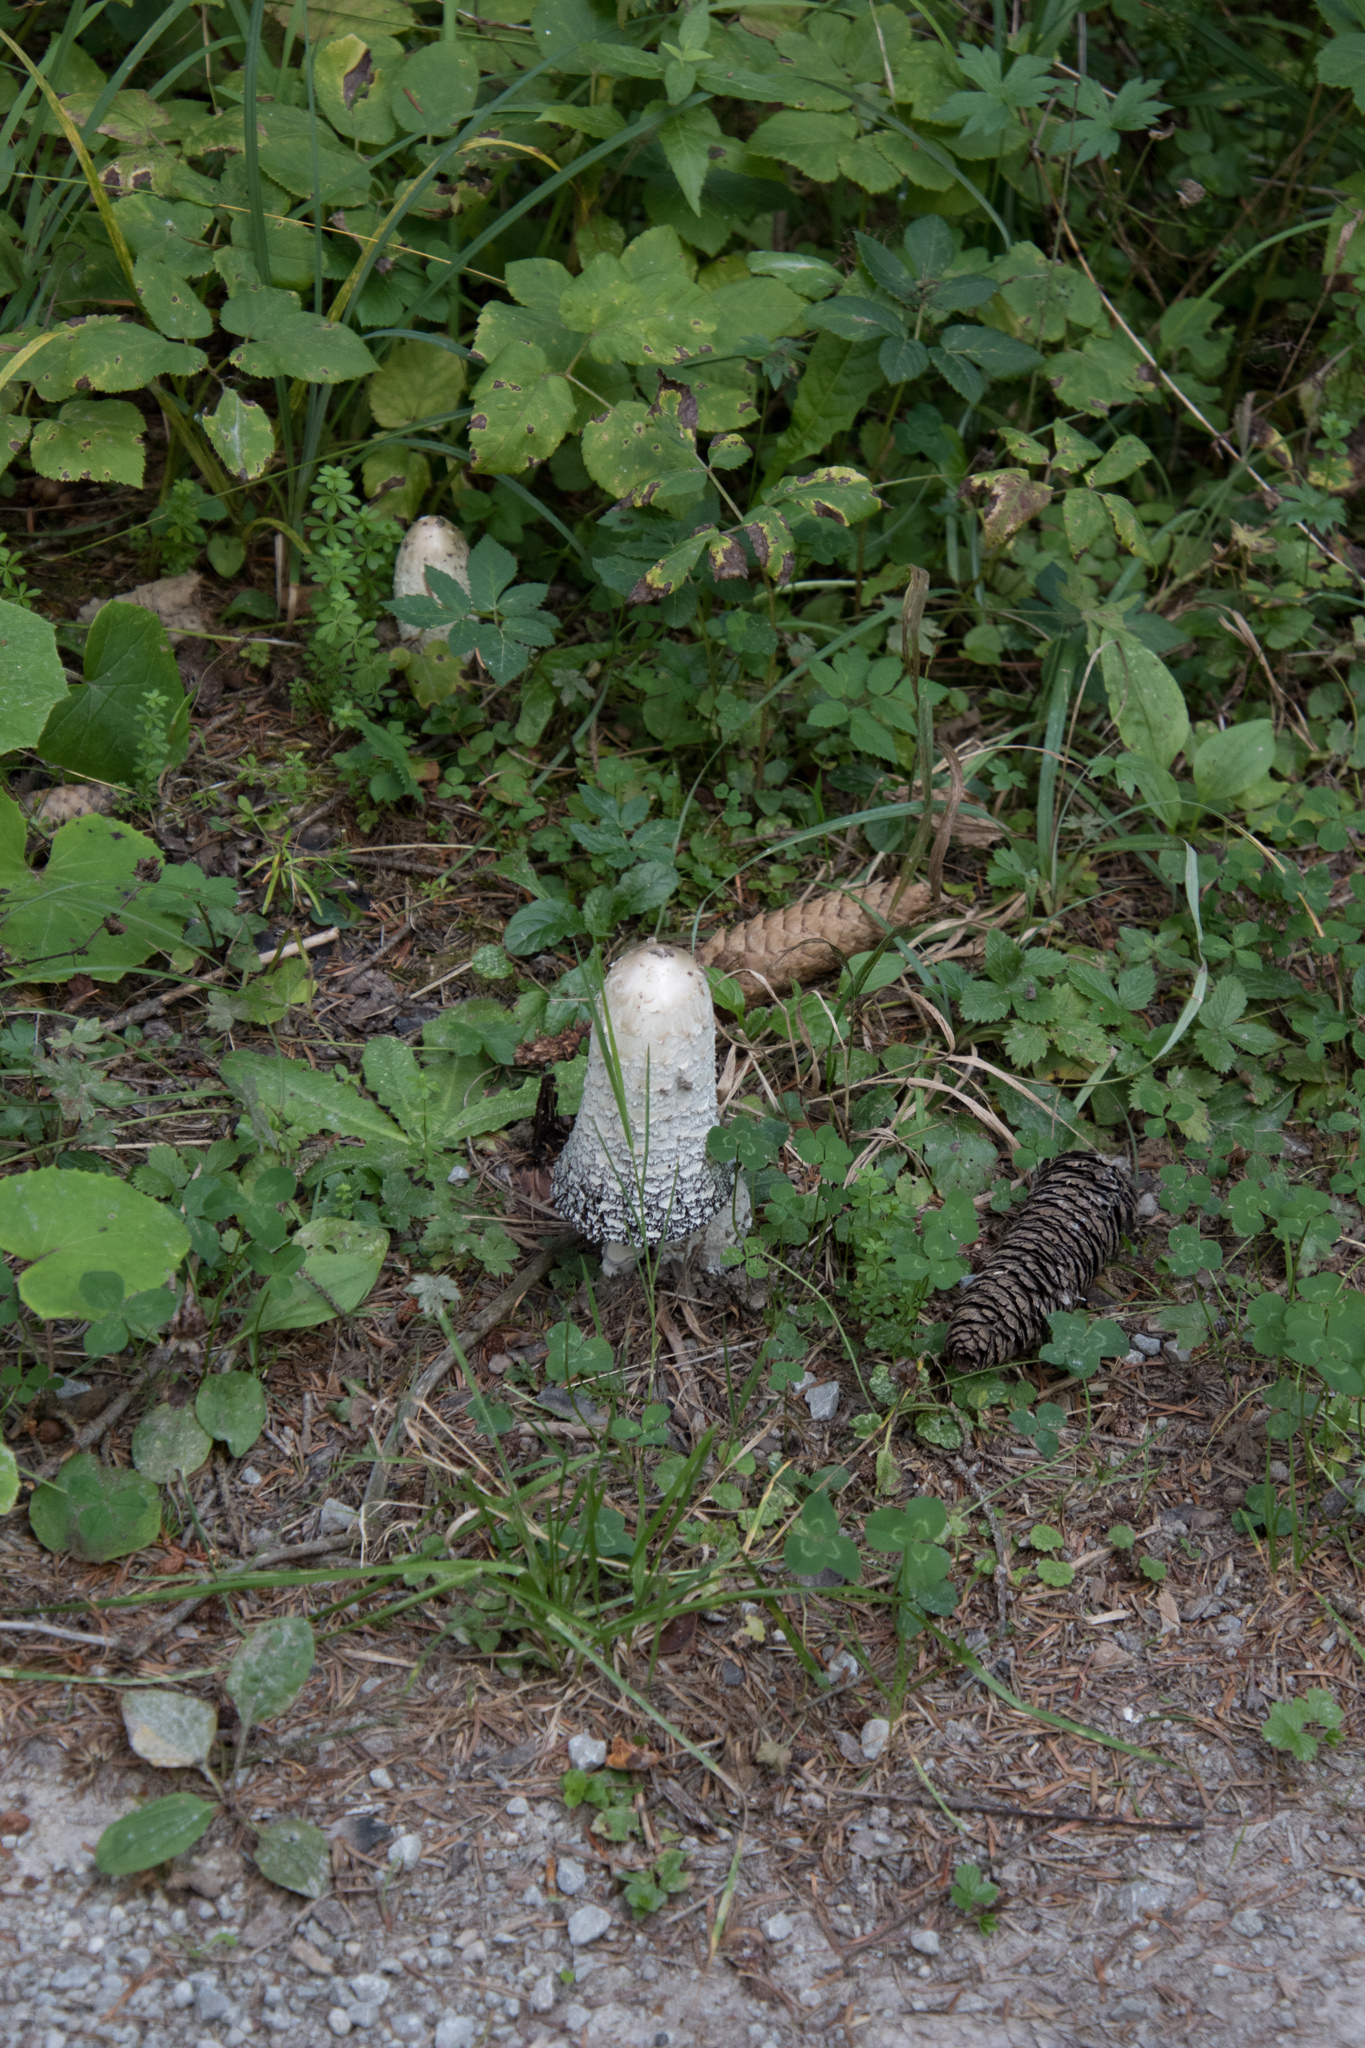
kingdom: Fungi
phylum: Basidiomycota
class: Agaricomycetes
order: Agaricales
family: Agaricaceae
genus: Coprinus
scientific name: Coprinus comatus
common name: Lawyer's wig
